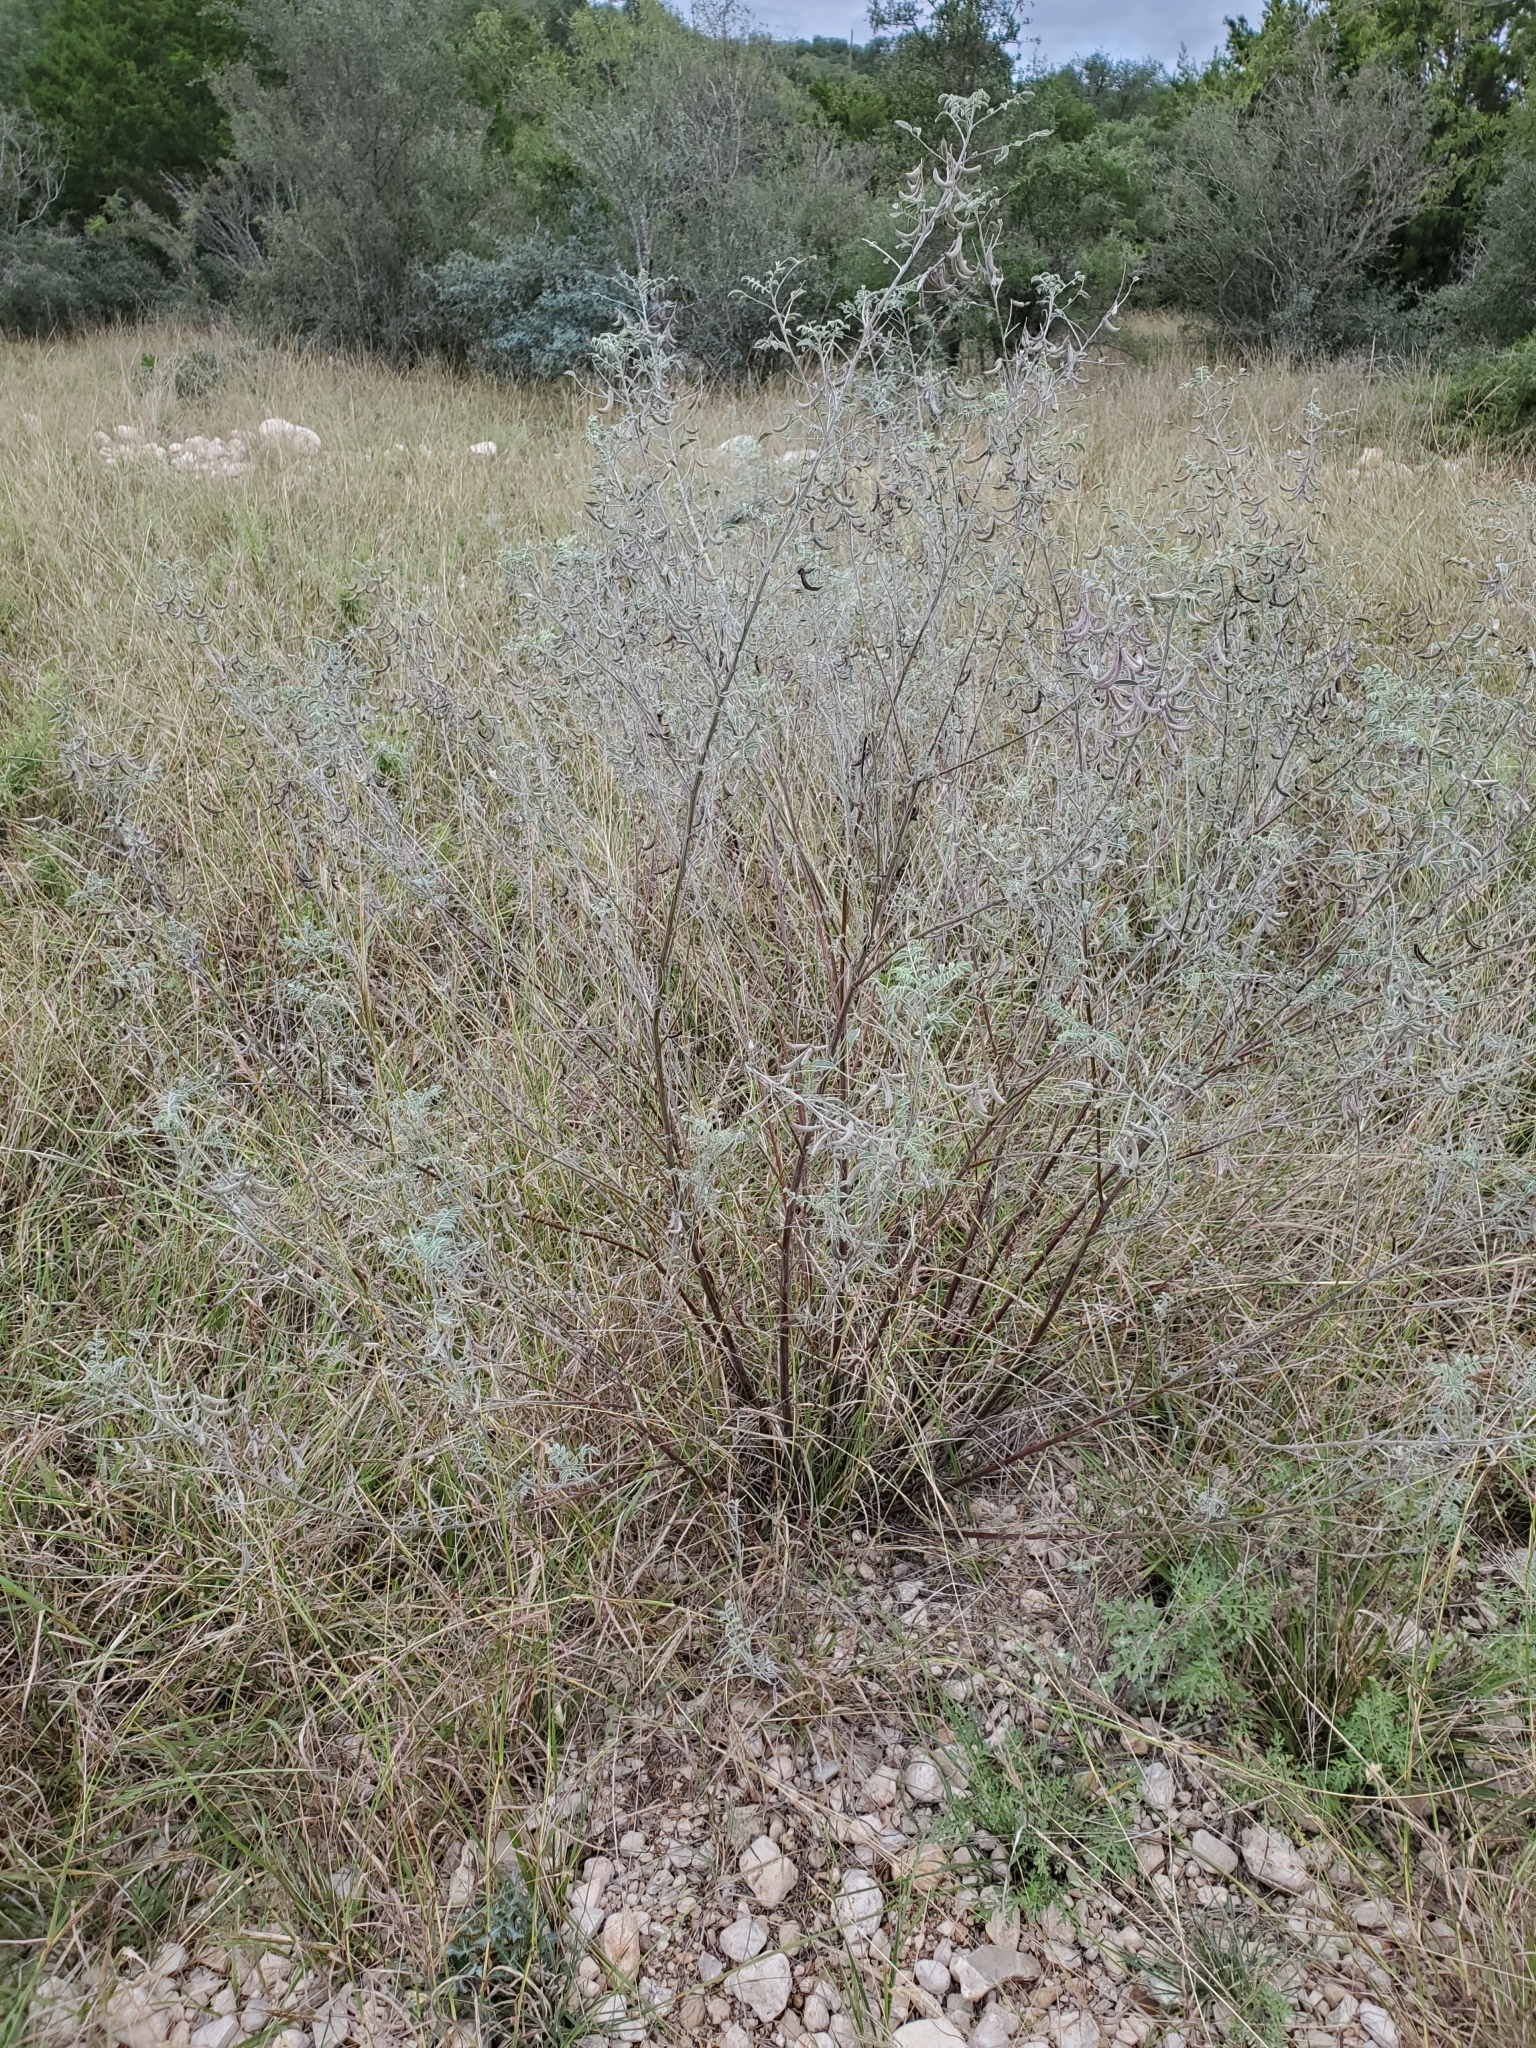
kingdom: Plantae
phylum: Tracheophyta
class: Magnoliopsida
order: Fabales
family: Fabaceae
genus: Indigofera
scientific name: Indigofera lindheimeriana
